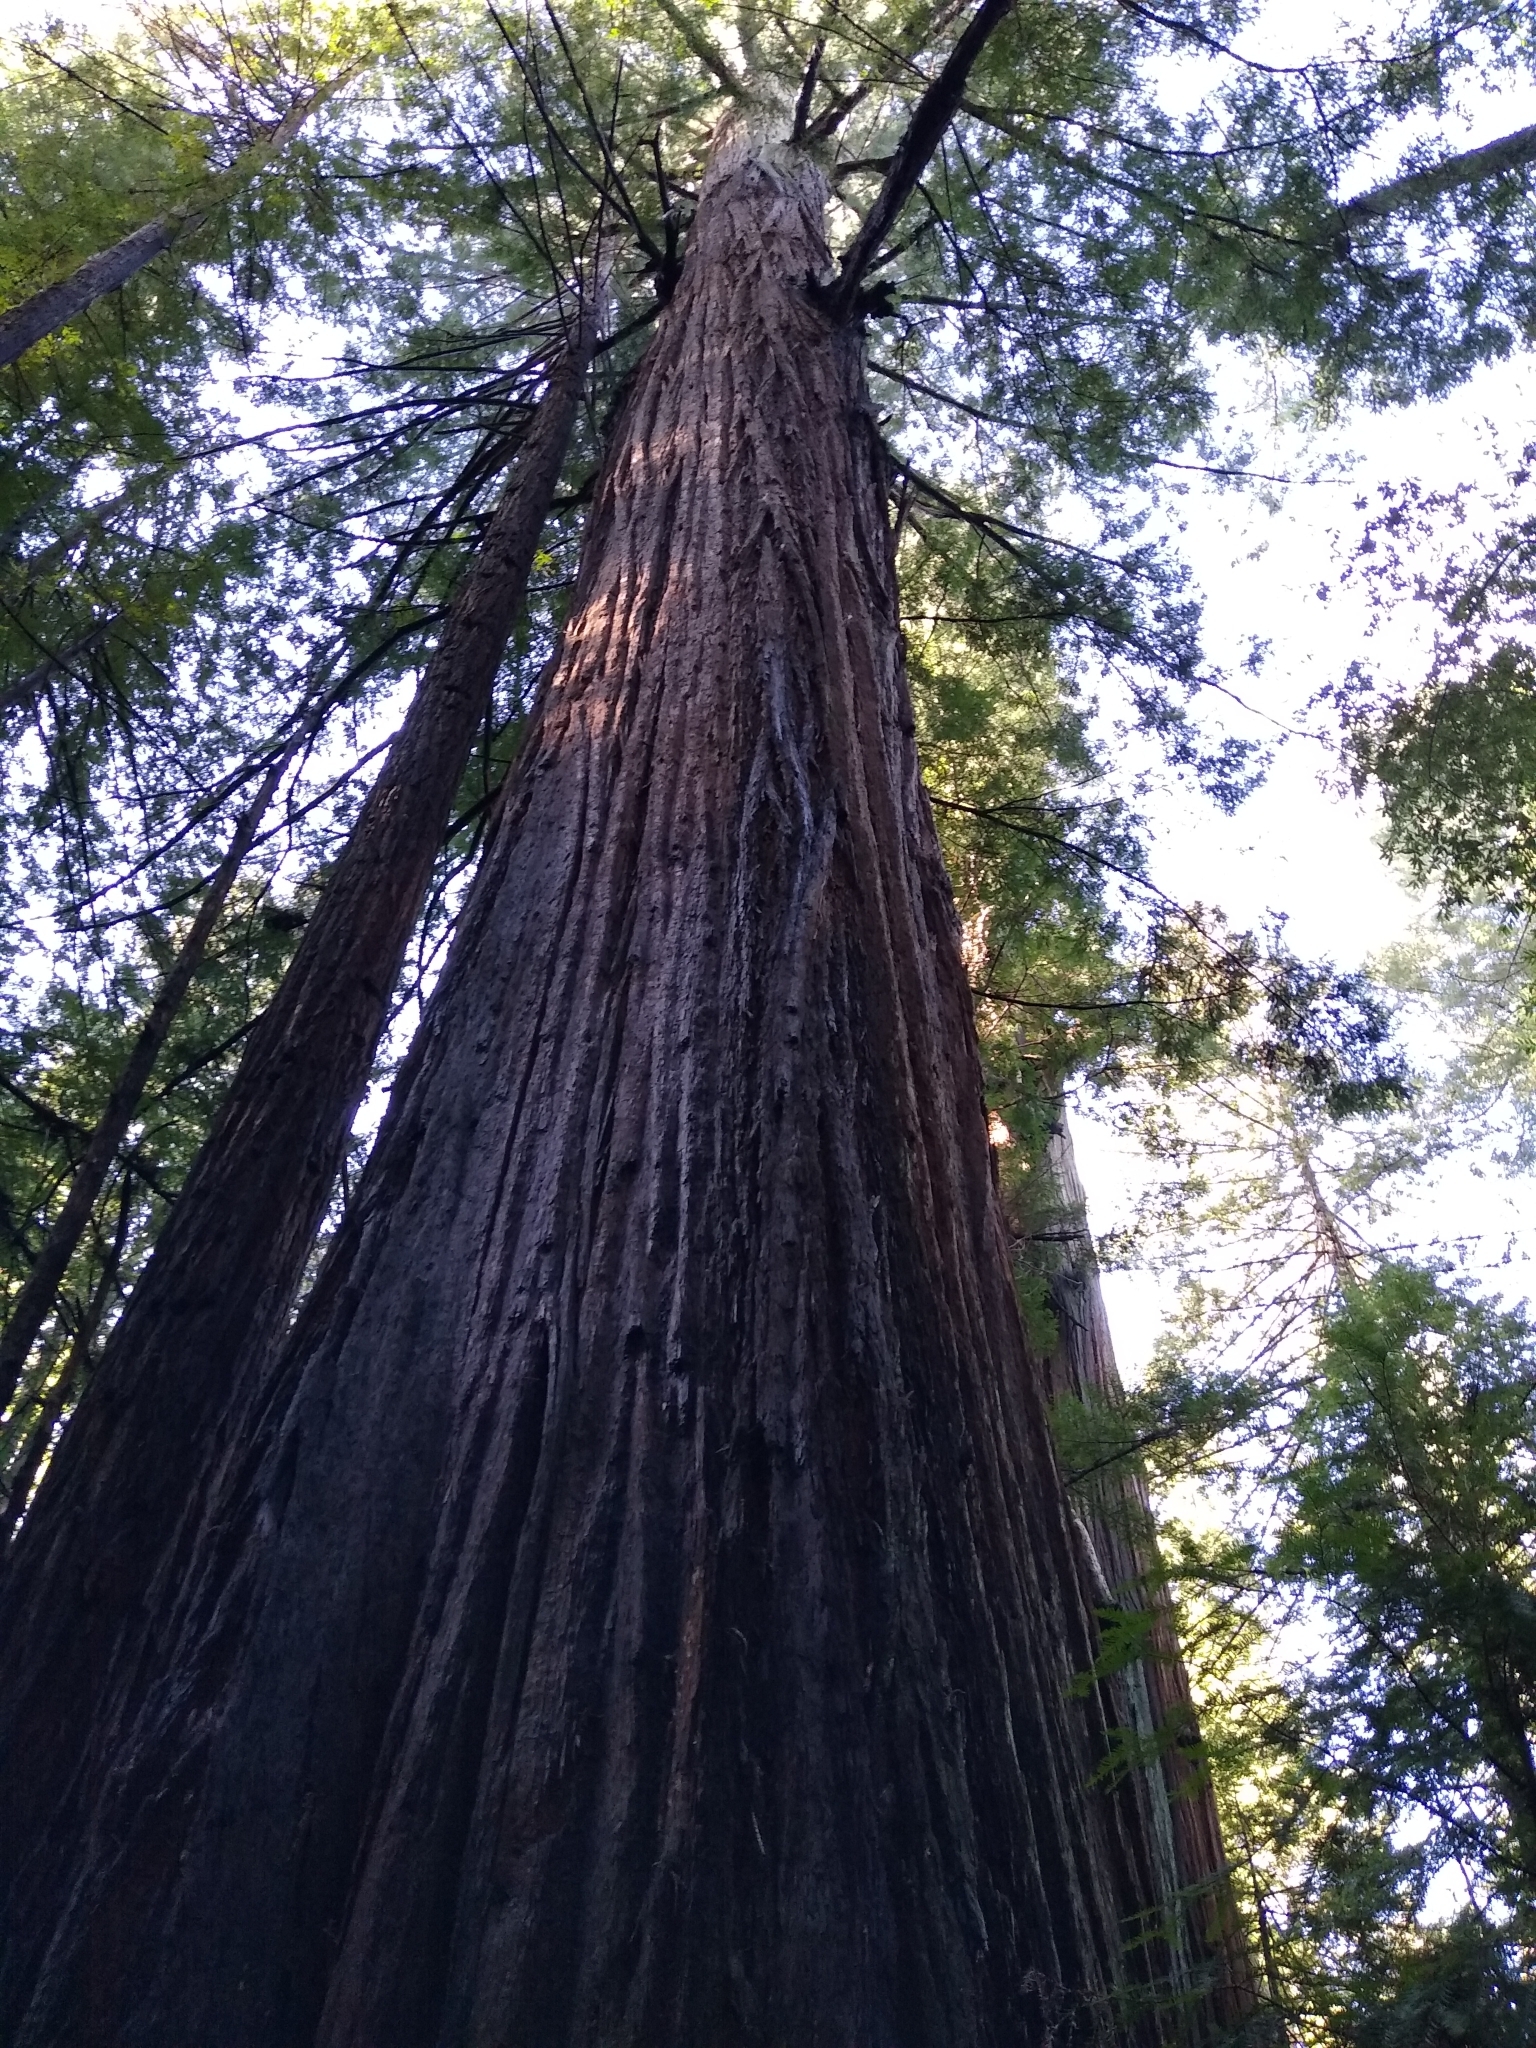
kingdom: Plantae
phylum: Tracheophyta
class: Pinopsida
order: Pinales
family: Cupressaceae
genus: Sequoia
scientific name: Sequoia sempervirens
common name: Coast redwood
